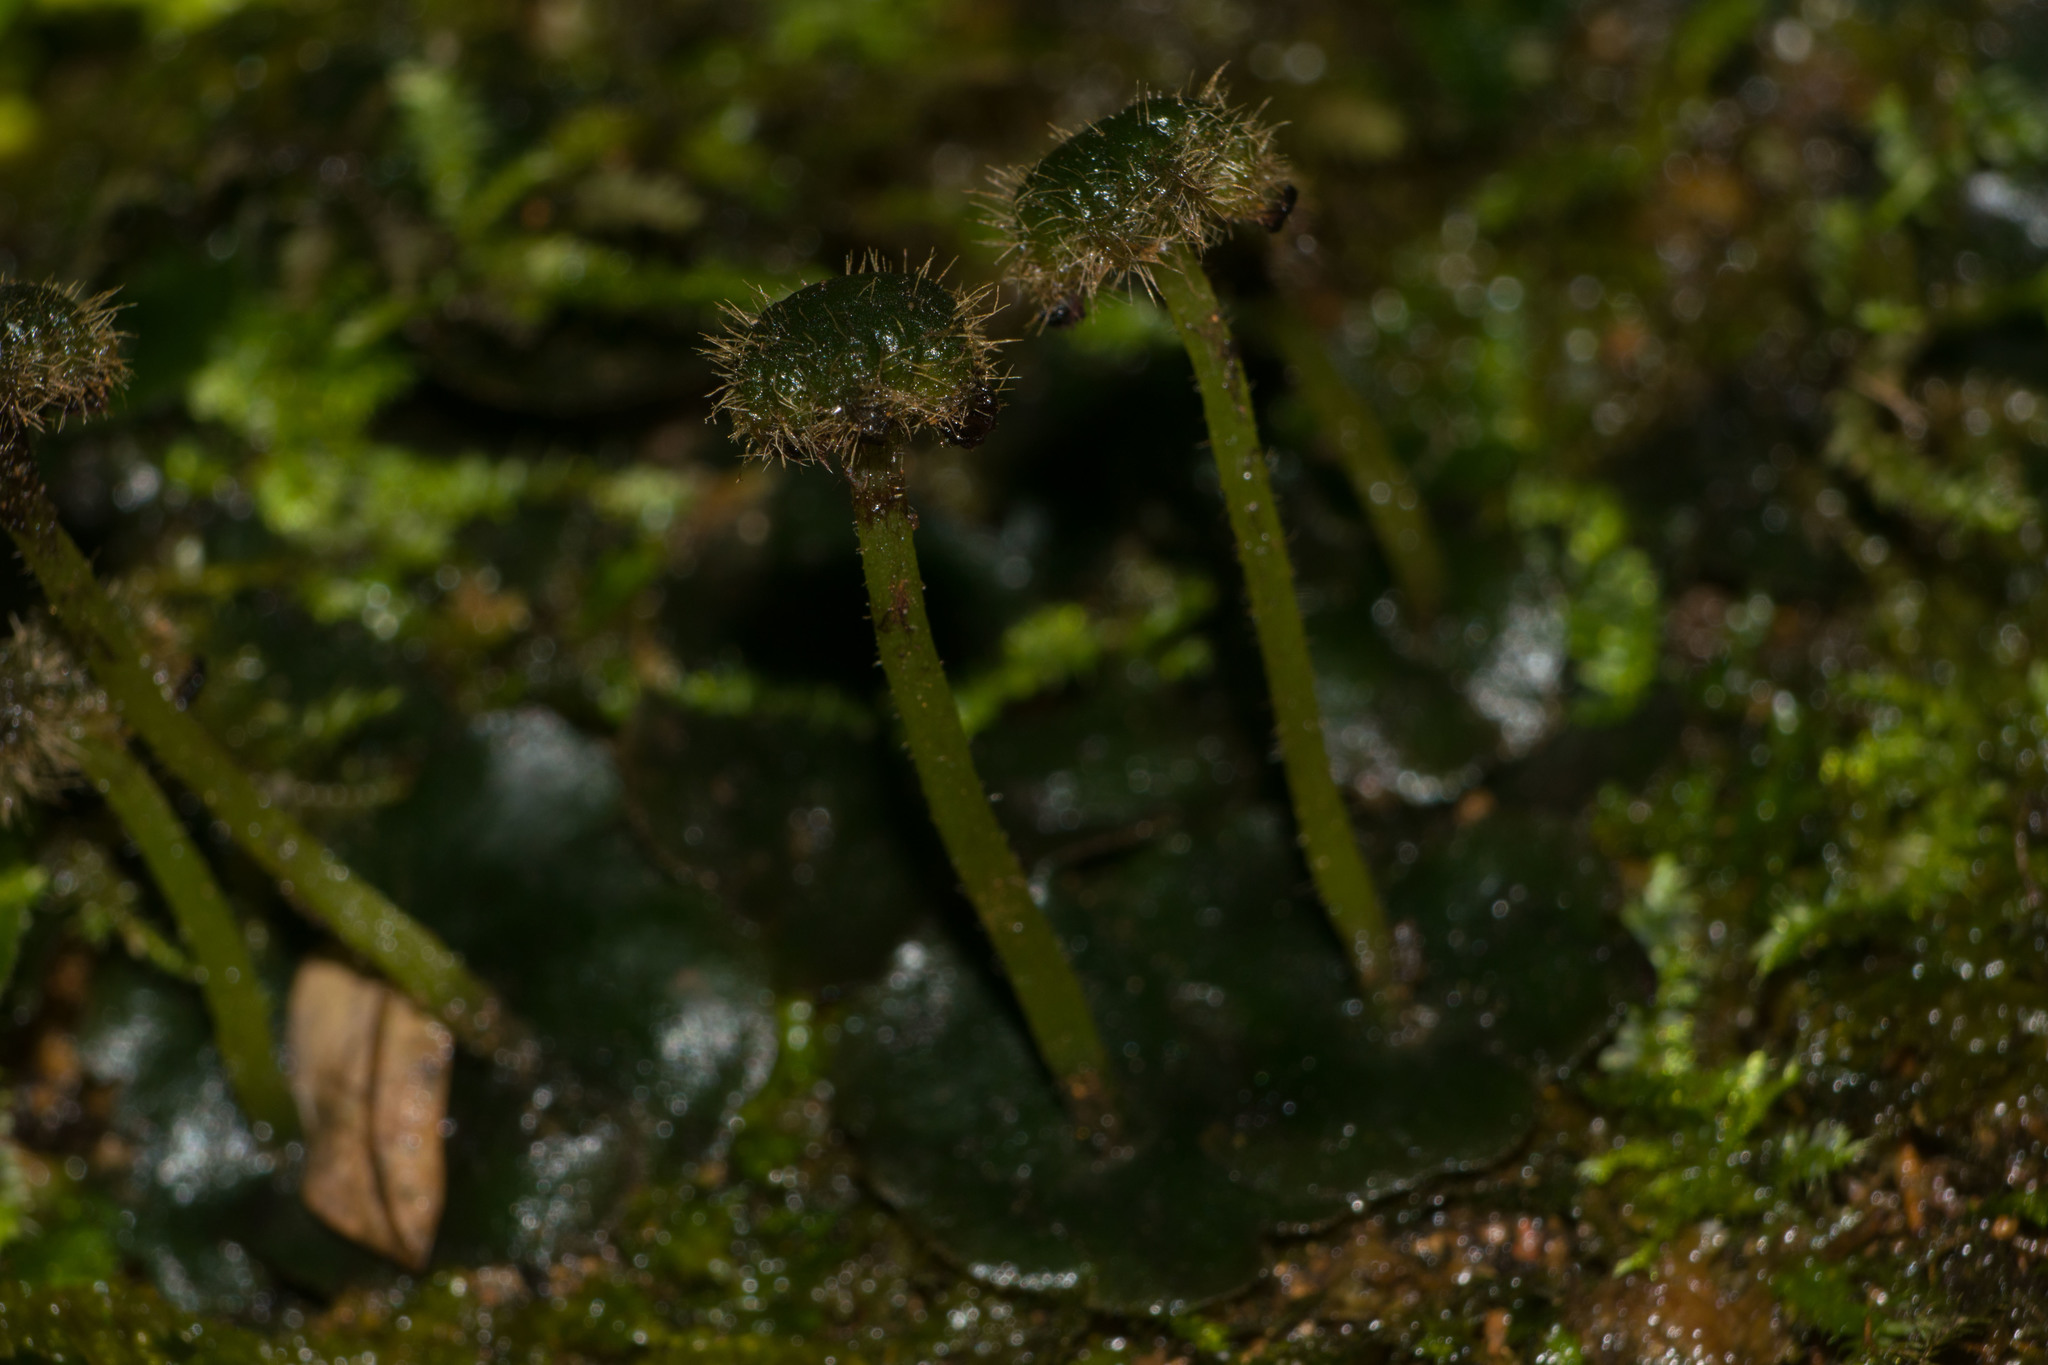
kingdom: Plantae
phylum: Marchantiophyta
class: Marchantiopsida
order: Marchantiales
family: Dumortieraceae
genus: Dumortiera
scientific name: Dumortiera hirsuta
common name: Dumortier's liverwort
